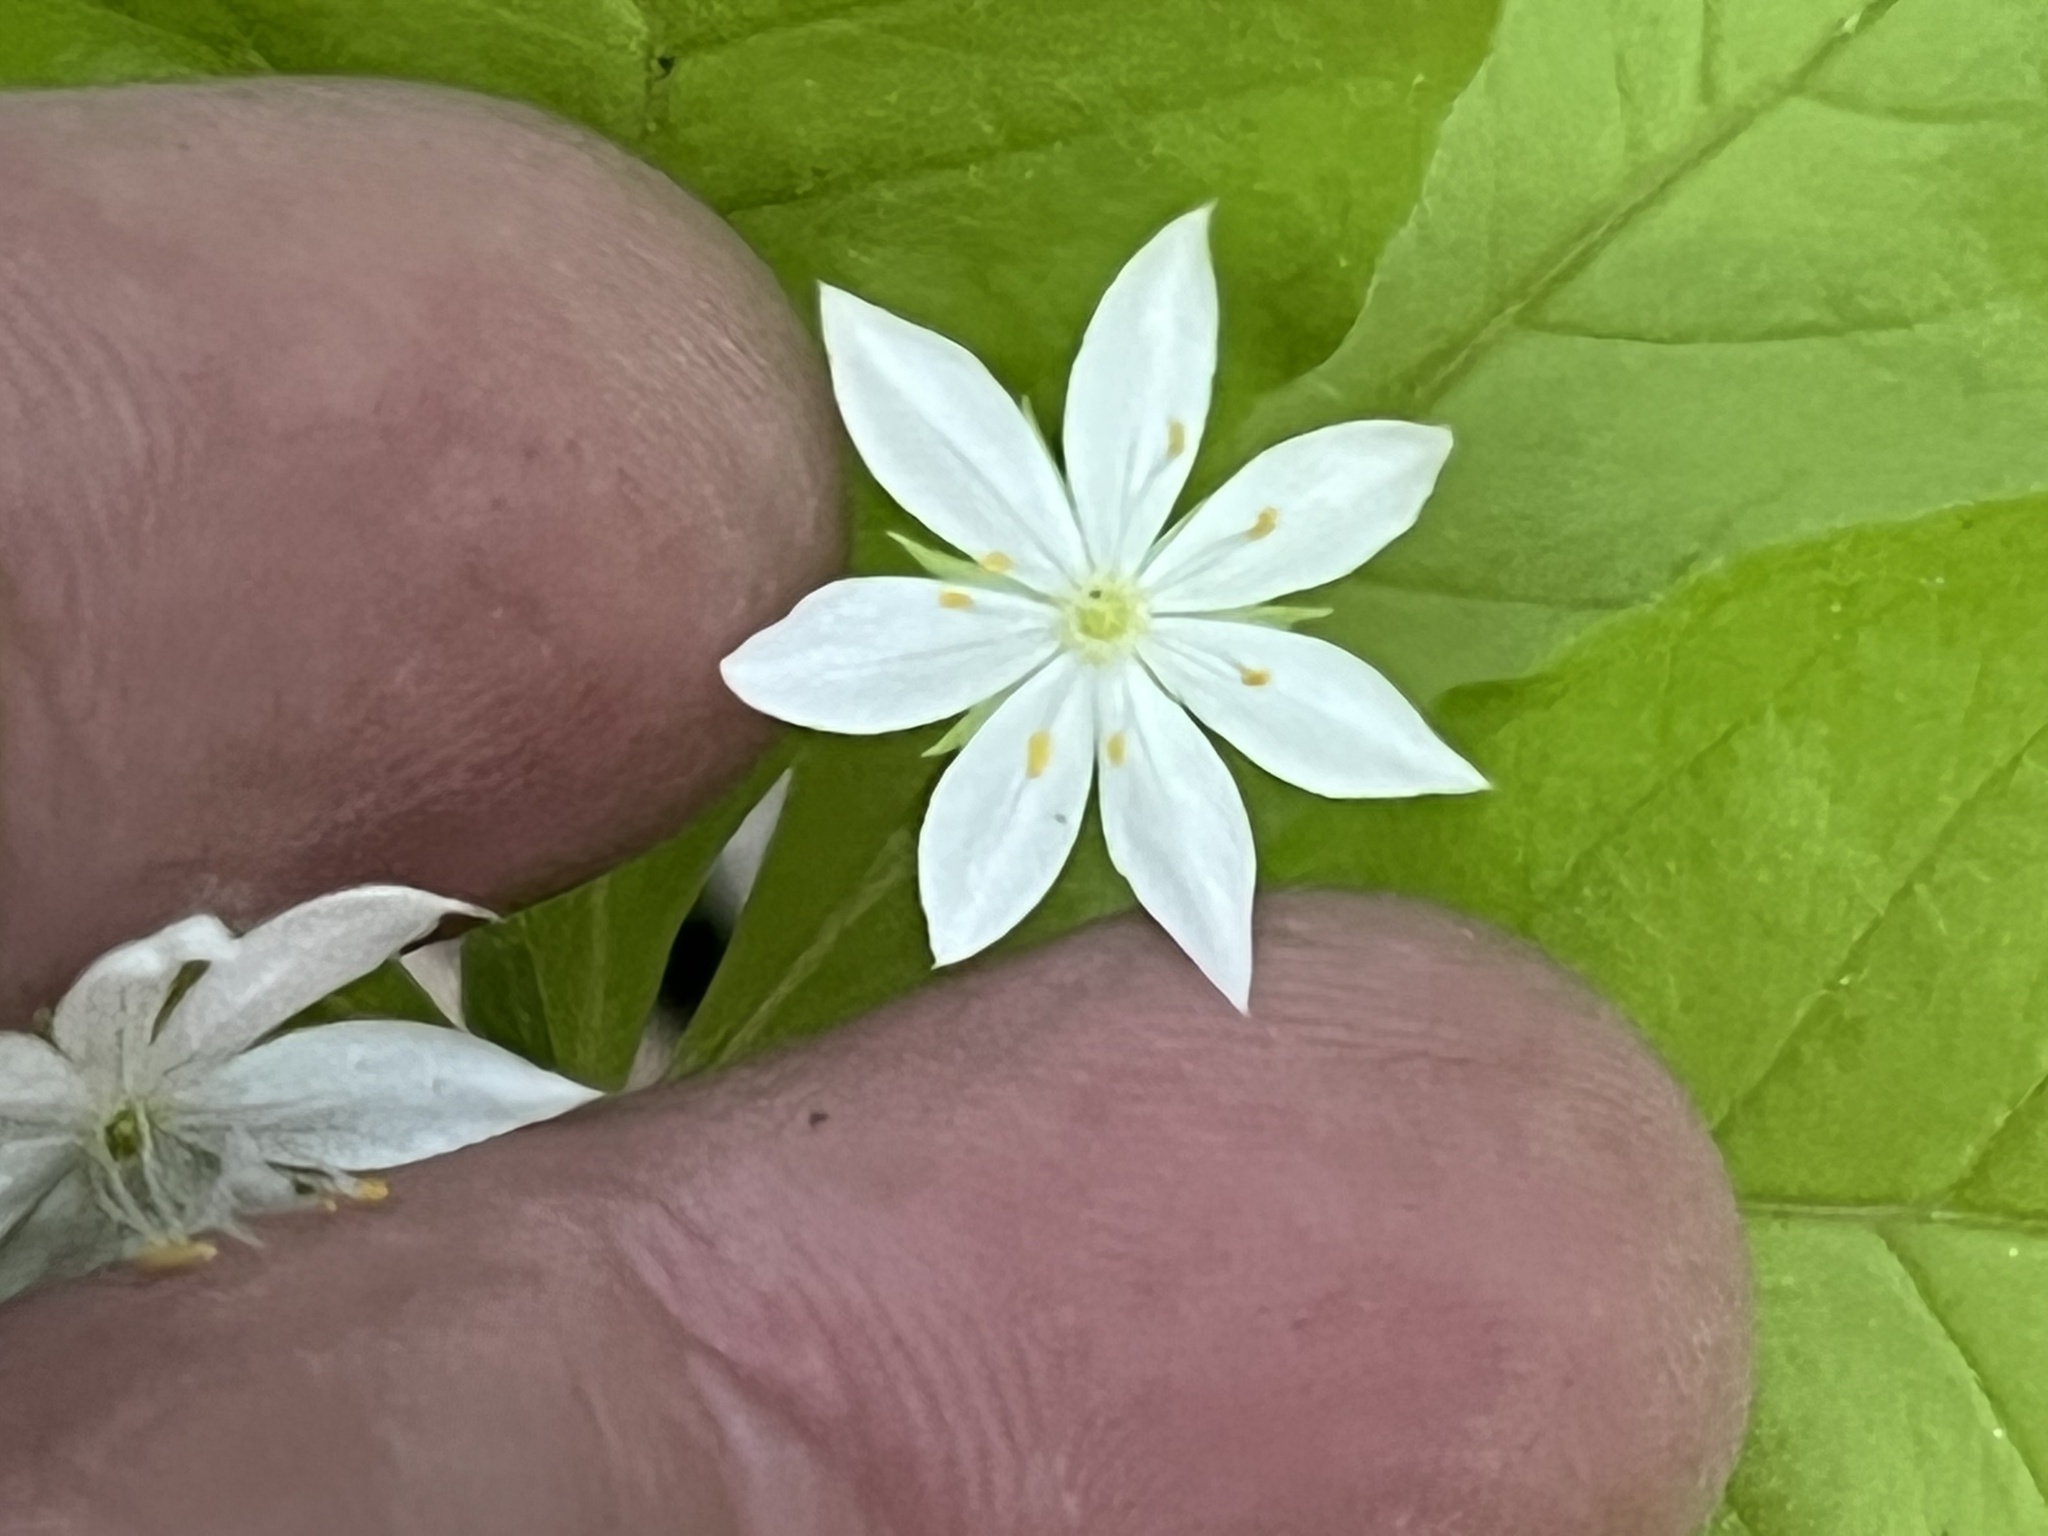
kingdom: Plantae
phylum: Tracheophyta
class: Magnoliopsida
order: Ericales
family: Primulaceae
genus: Lysimachia
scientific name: Lysimachia borealis
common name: American starflower
